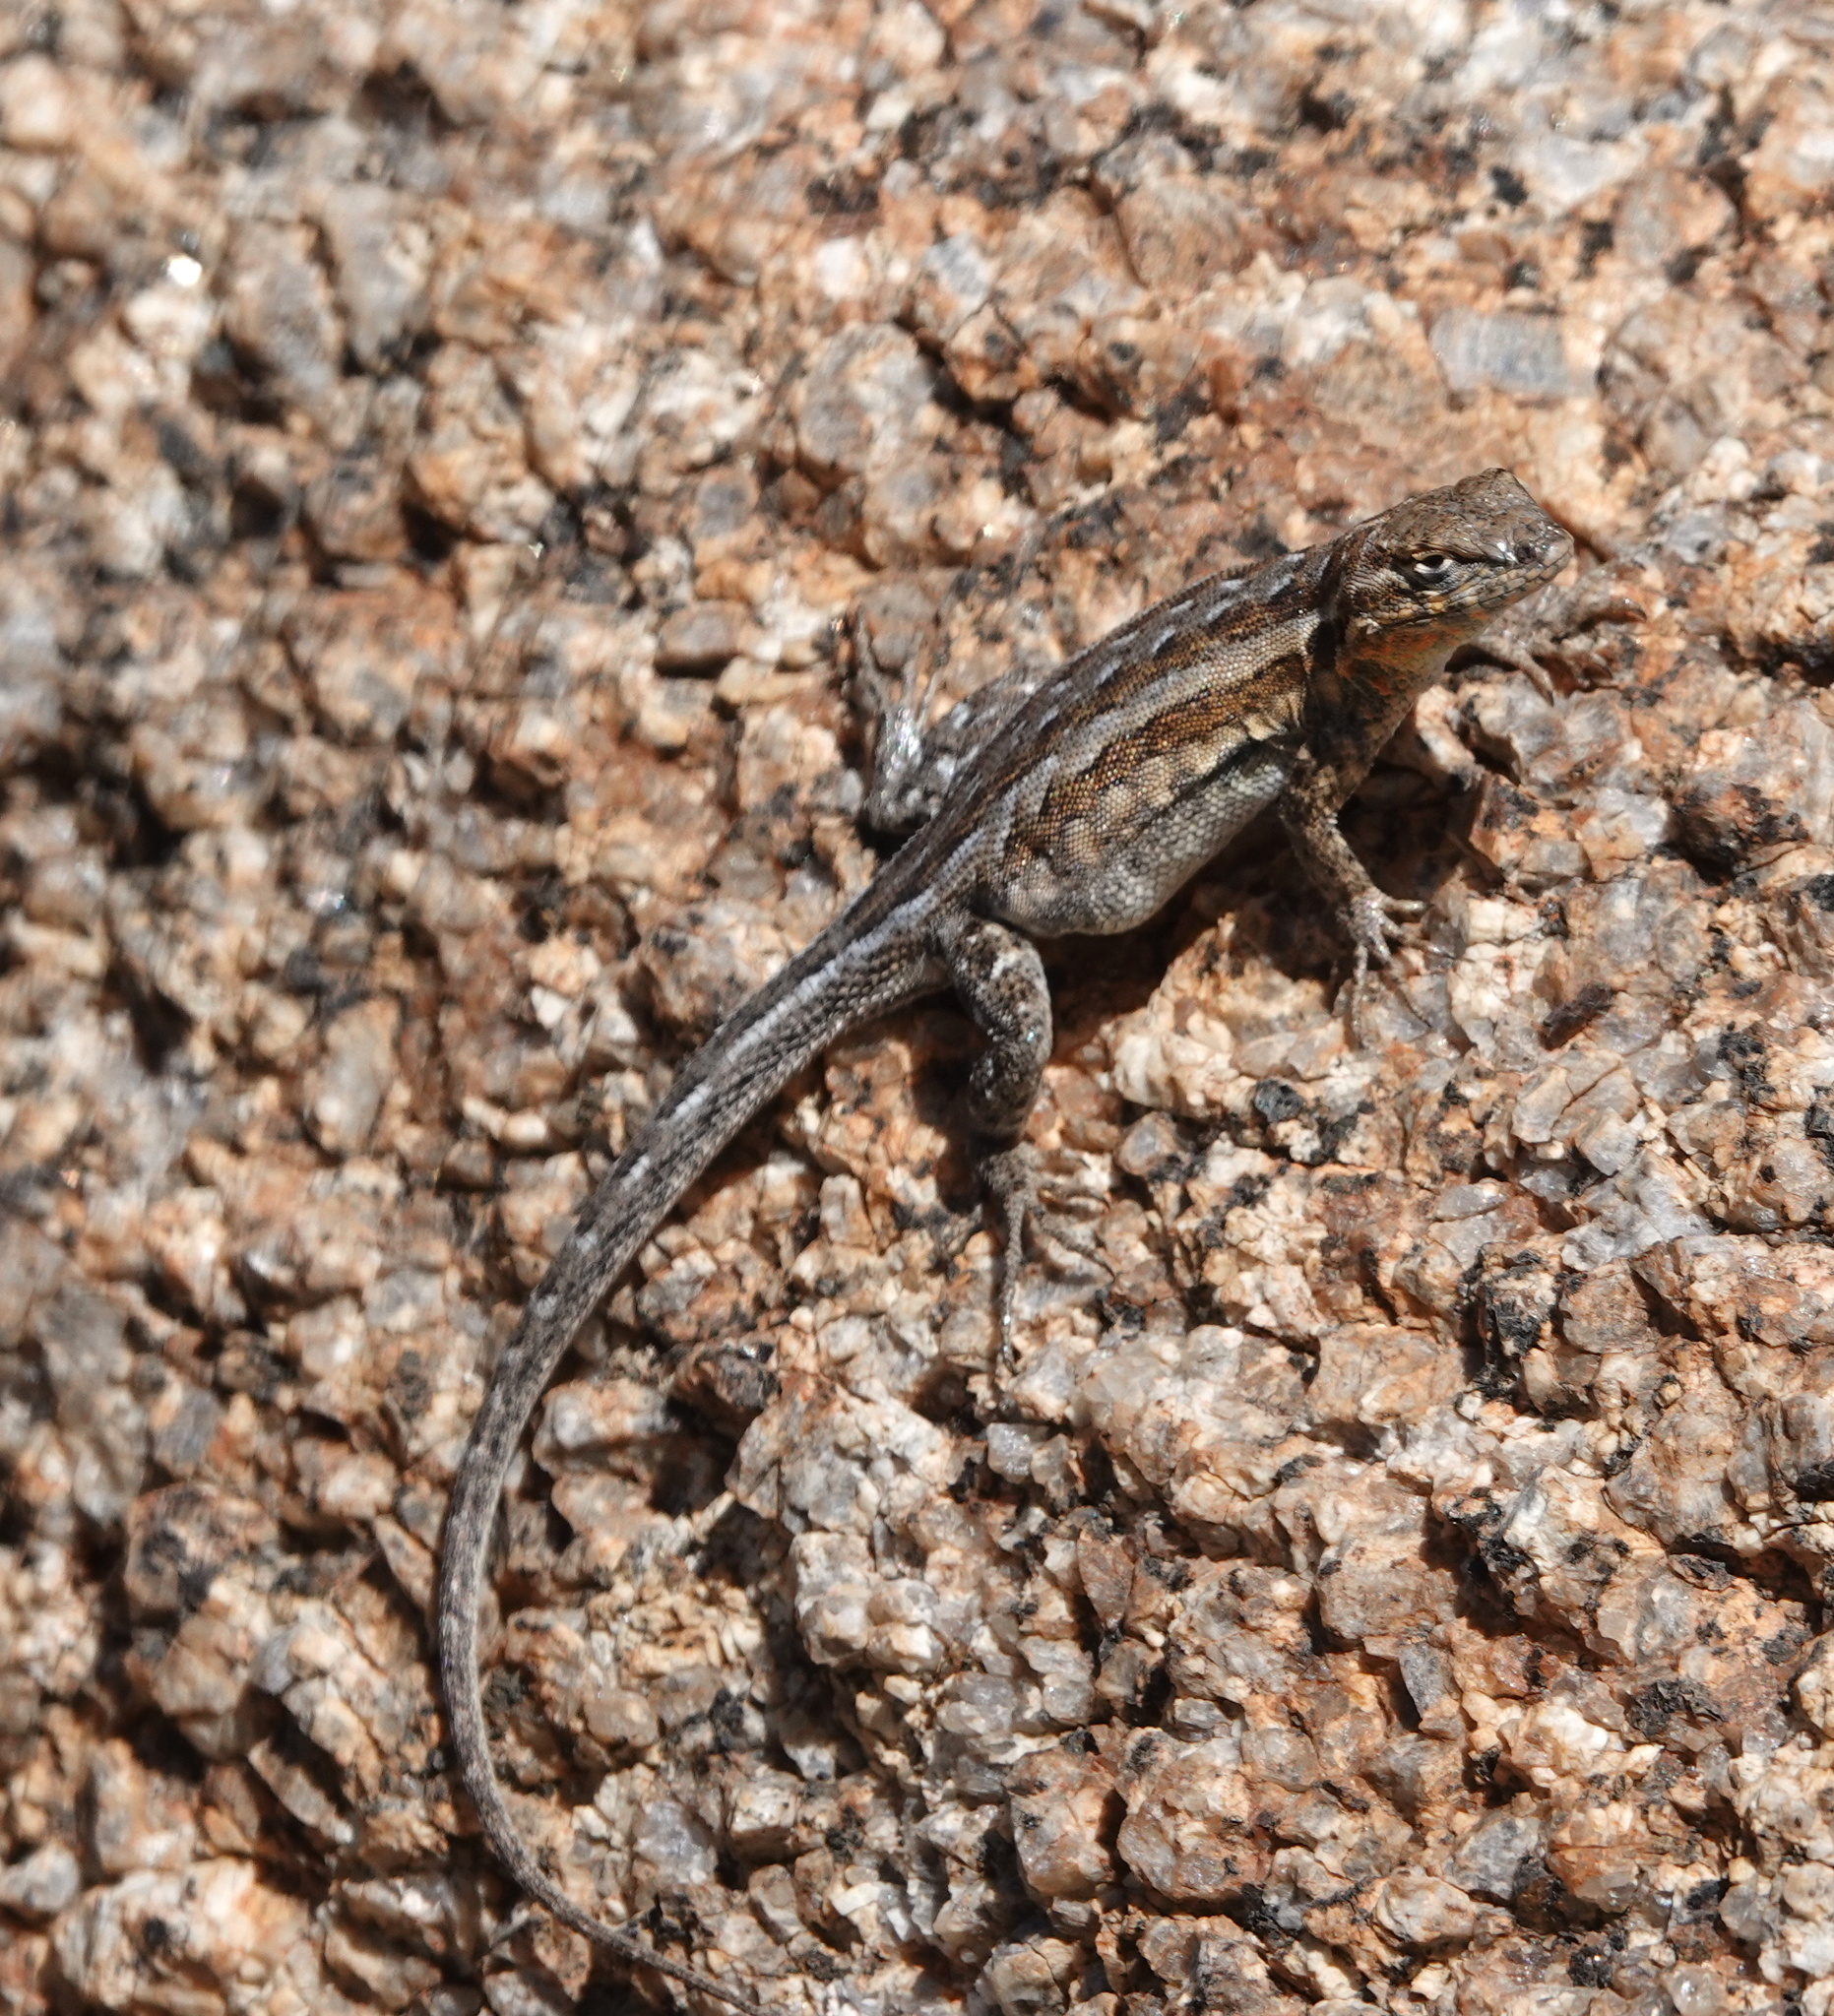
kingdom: Animalia
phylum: Chordata
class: Squamata
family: Phrynosomatidae
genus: Uta
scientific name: Uta stansburiana
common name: Side-blotched lizard
